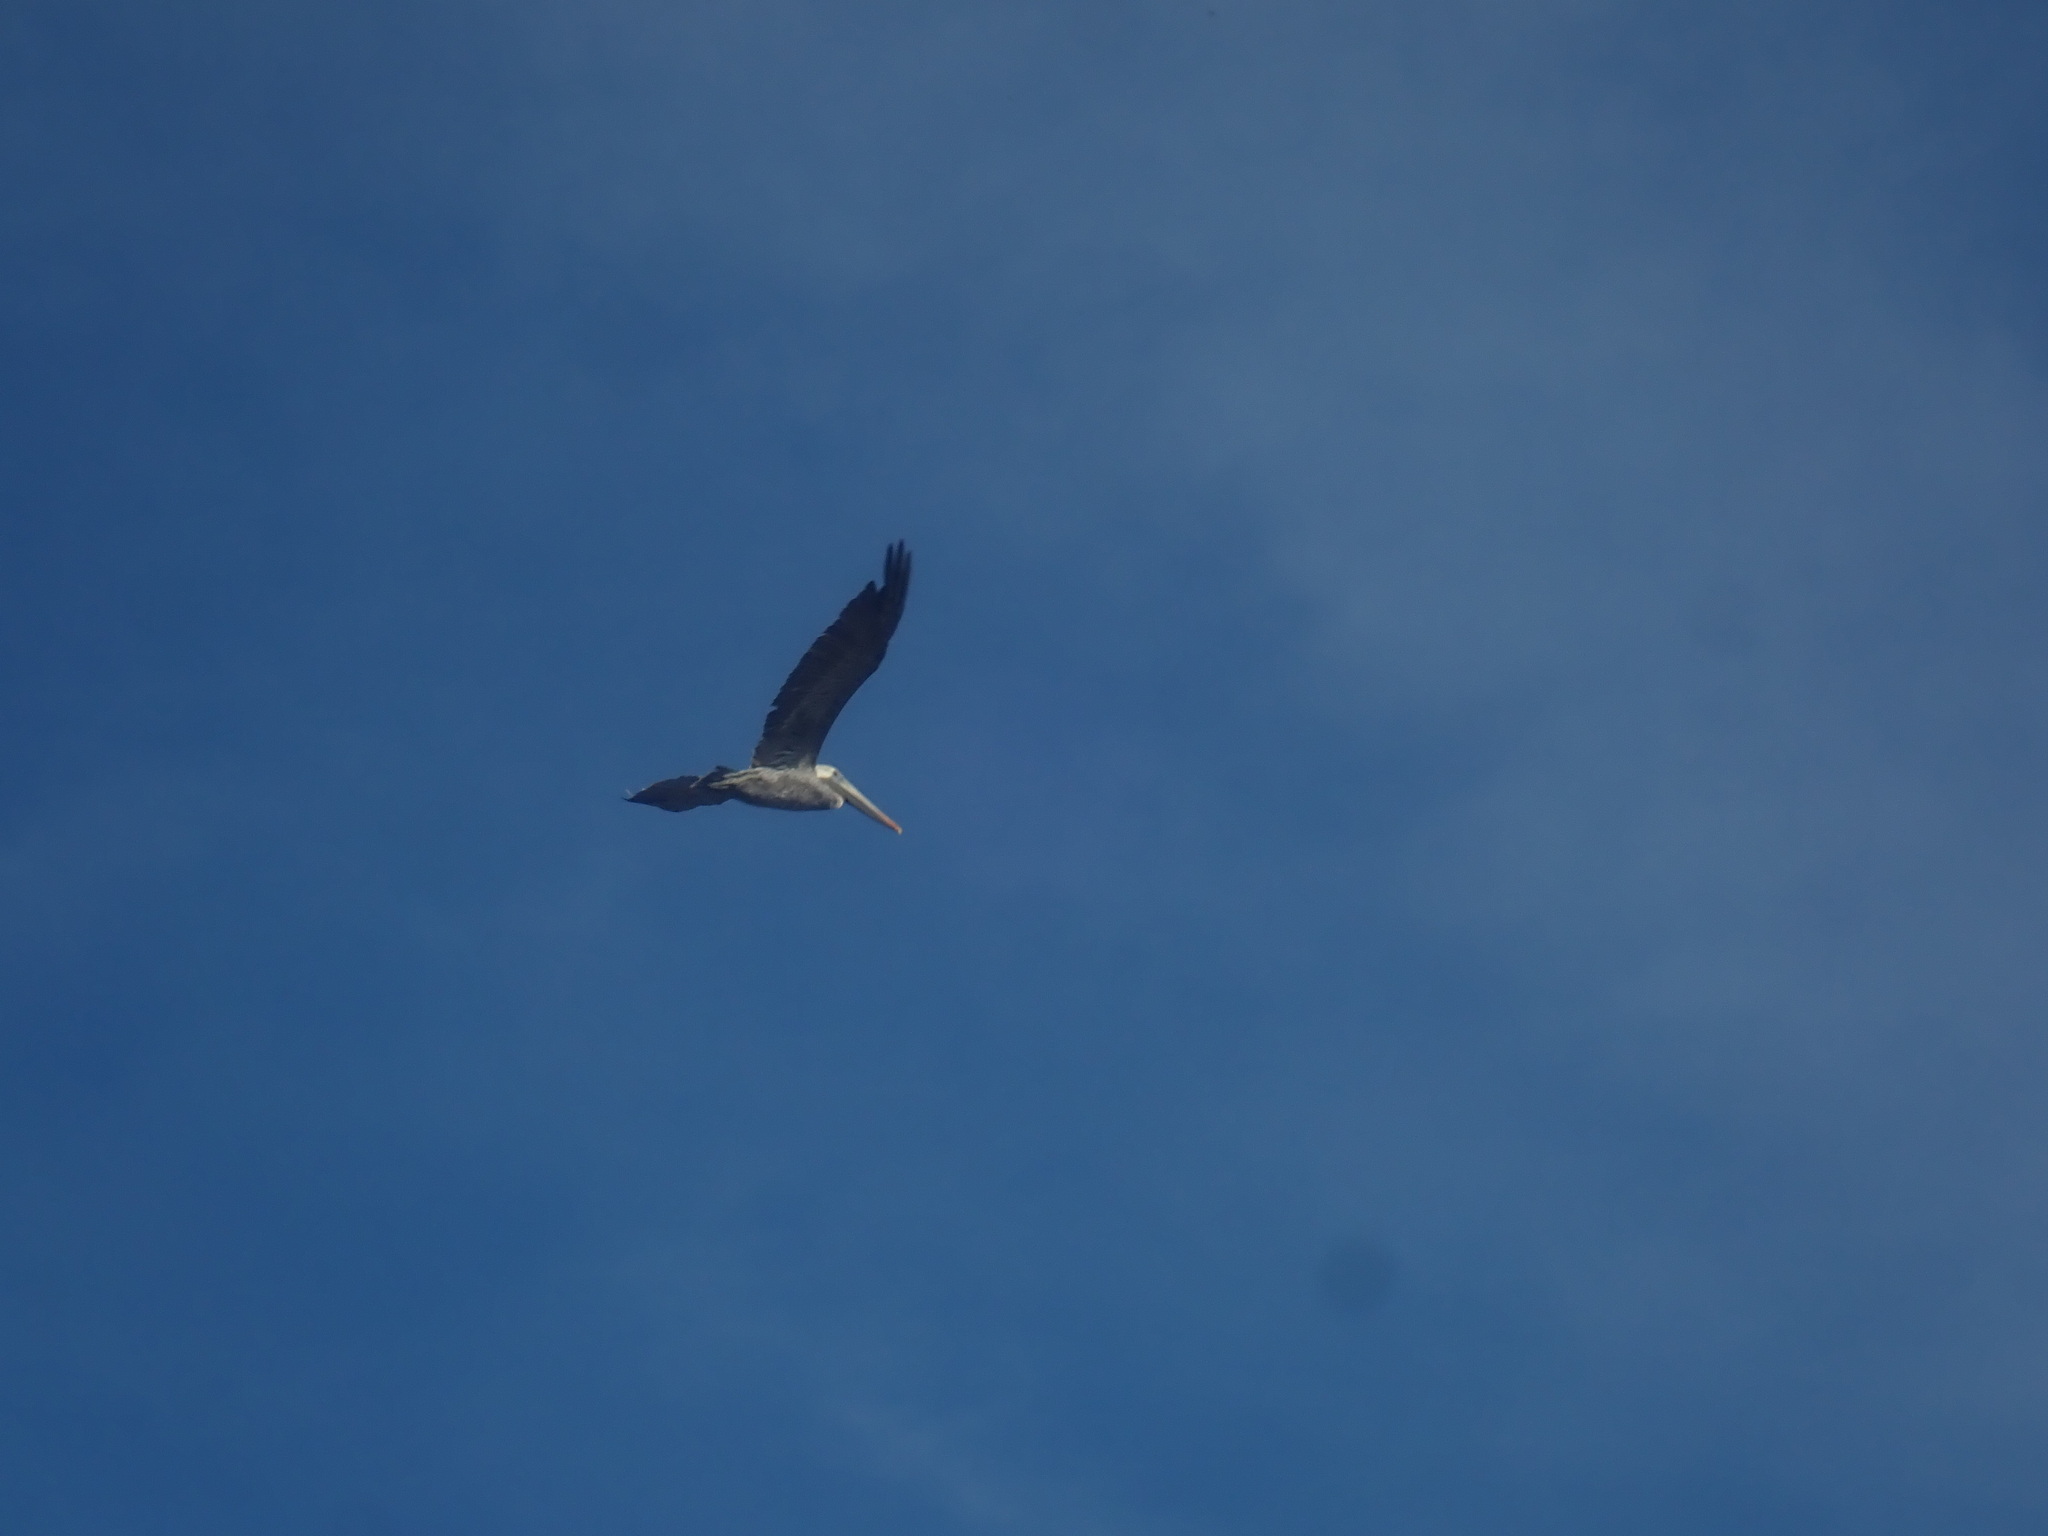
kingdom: Animalia
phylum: Chordata
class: Aves
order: Pelecaniformes
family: Pelecanidae
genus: Pelecanus
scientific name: Pelecanus occidentalis
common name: Brown pelican
